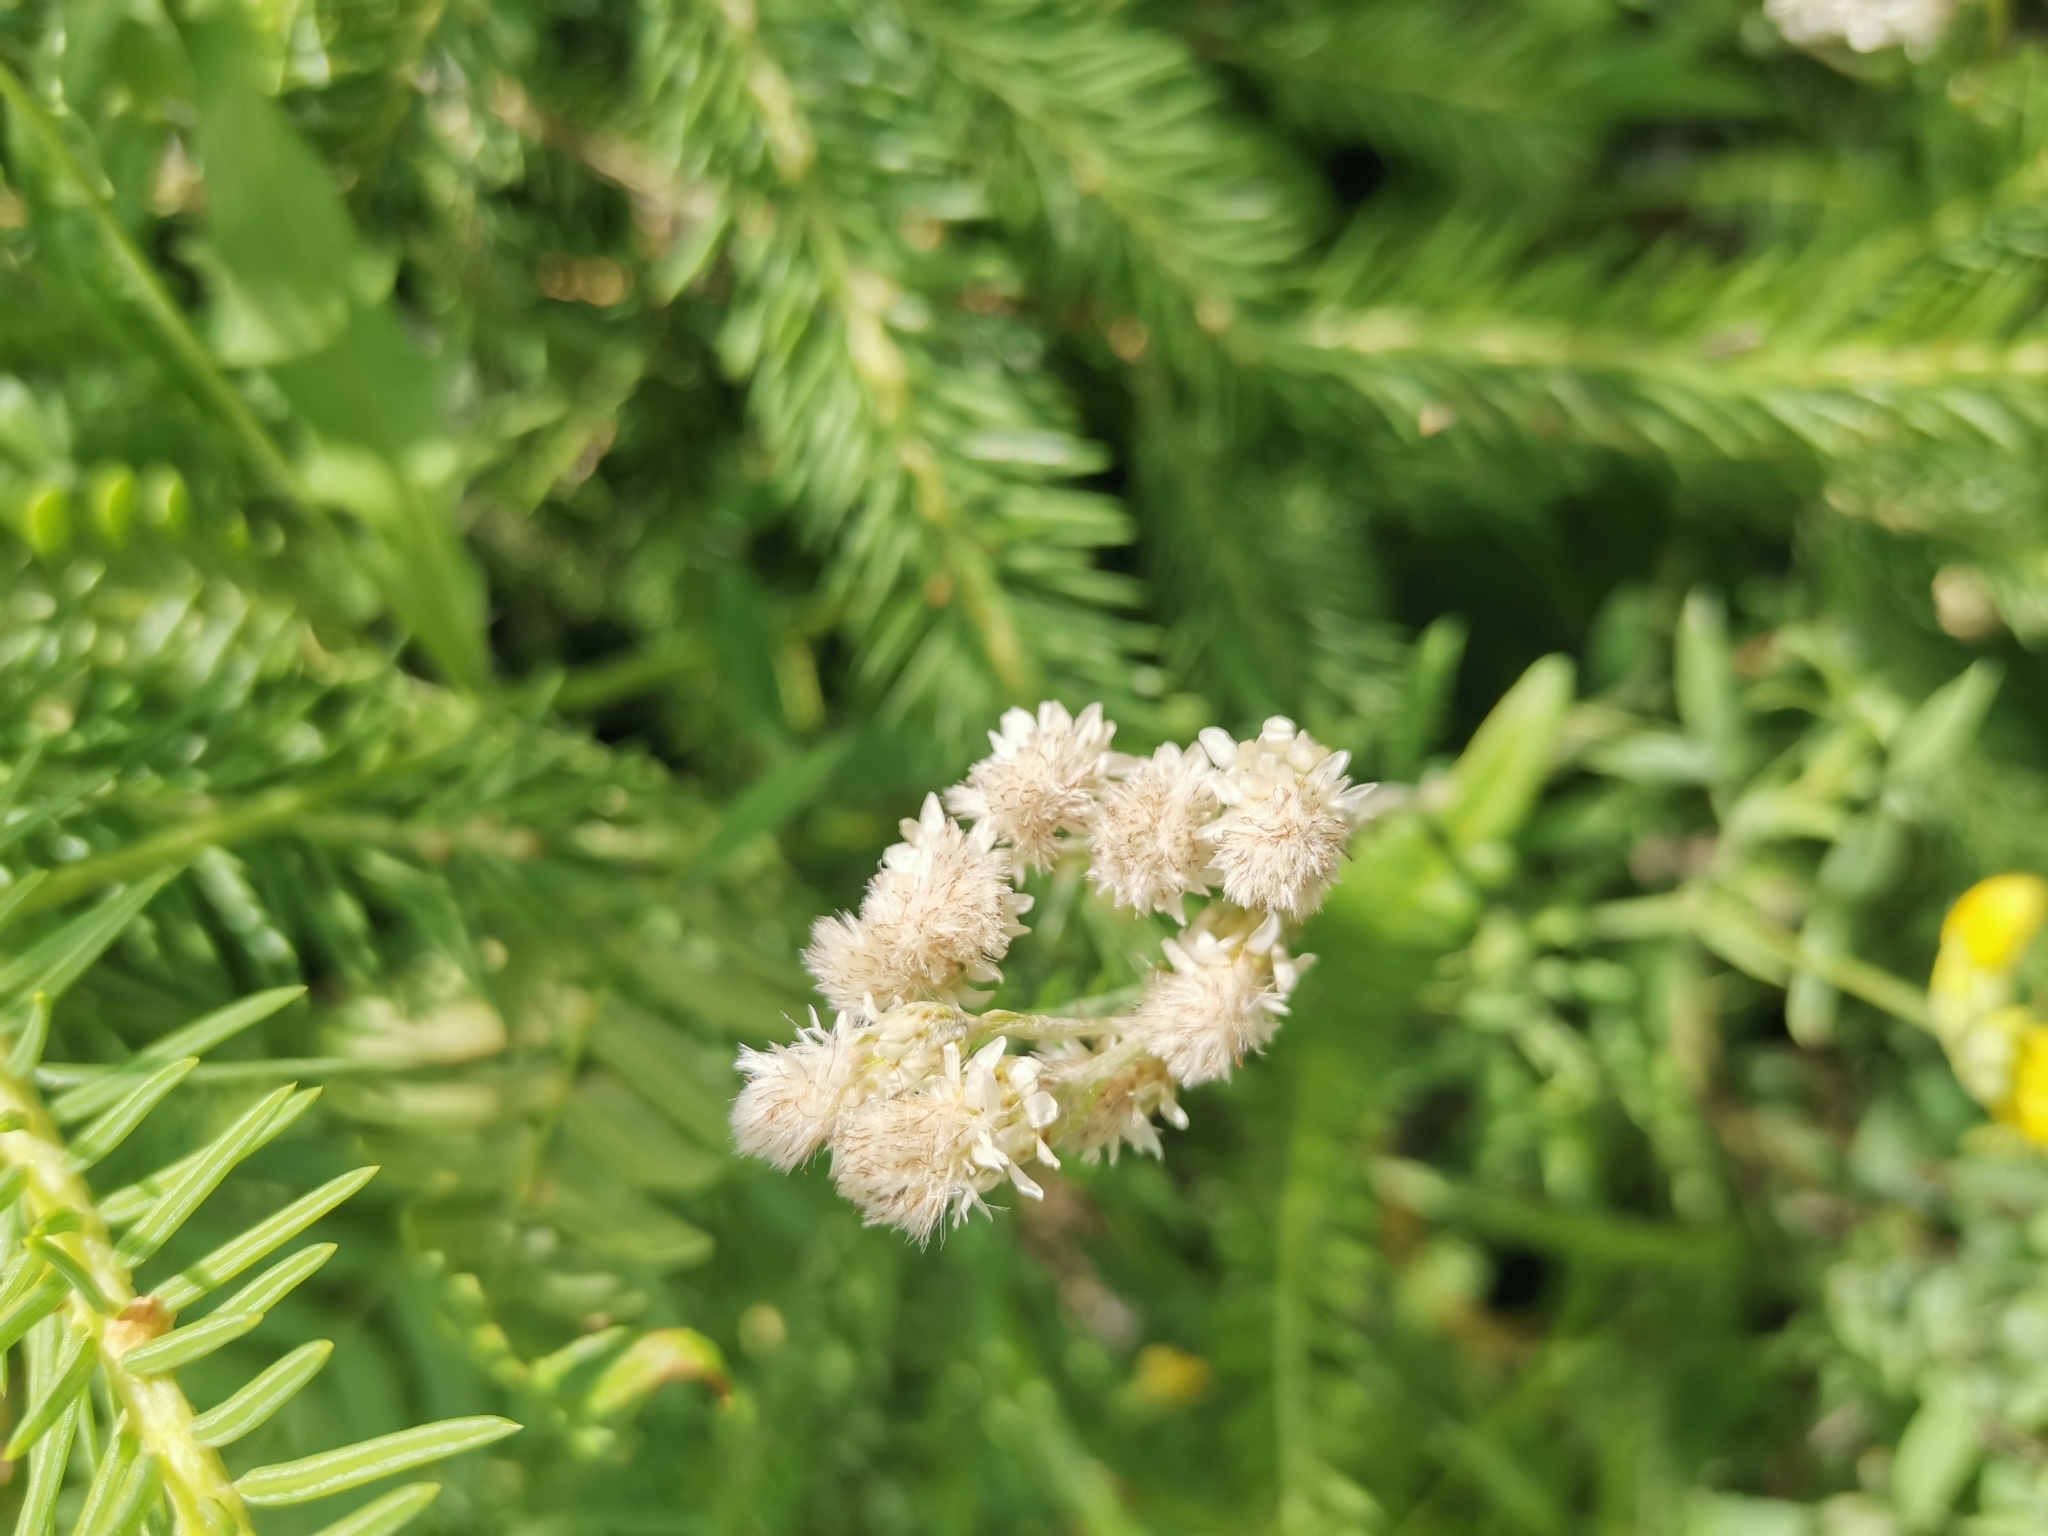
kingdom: Plantae
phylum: Tracheophyta
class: Magnoliopsida
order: Asterales
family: Asteraceae
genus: Antennaria
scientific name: Antennaria dioica
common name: Mountain everlasting
